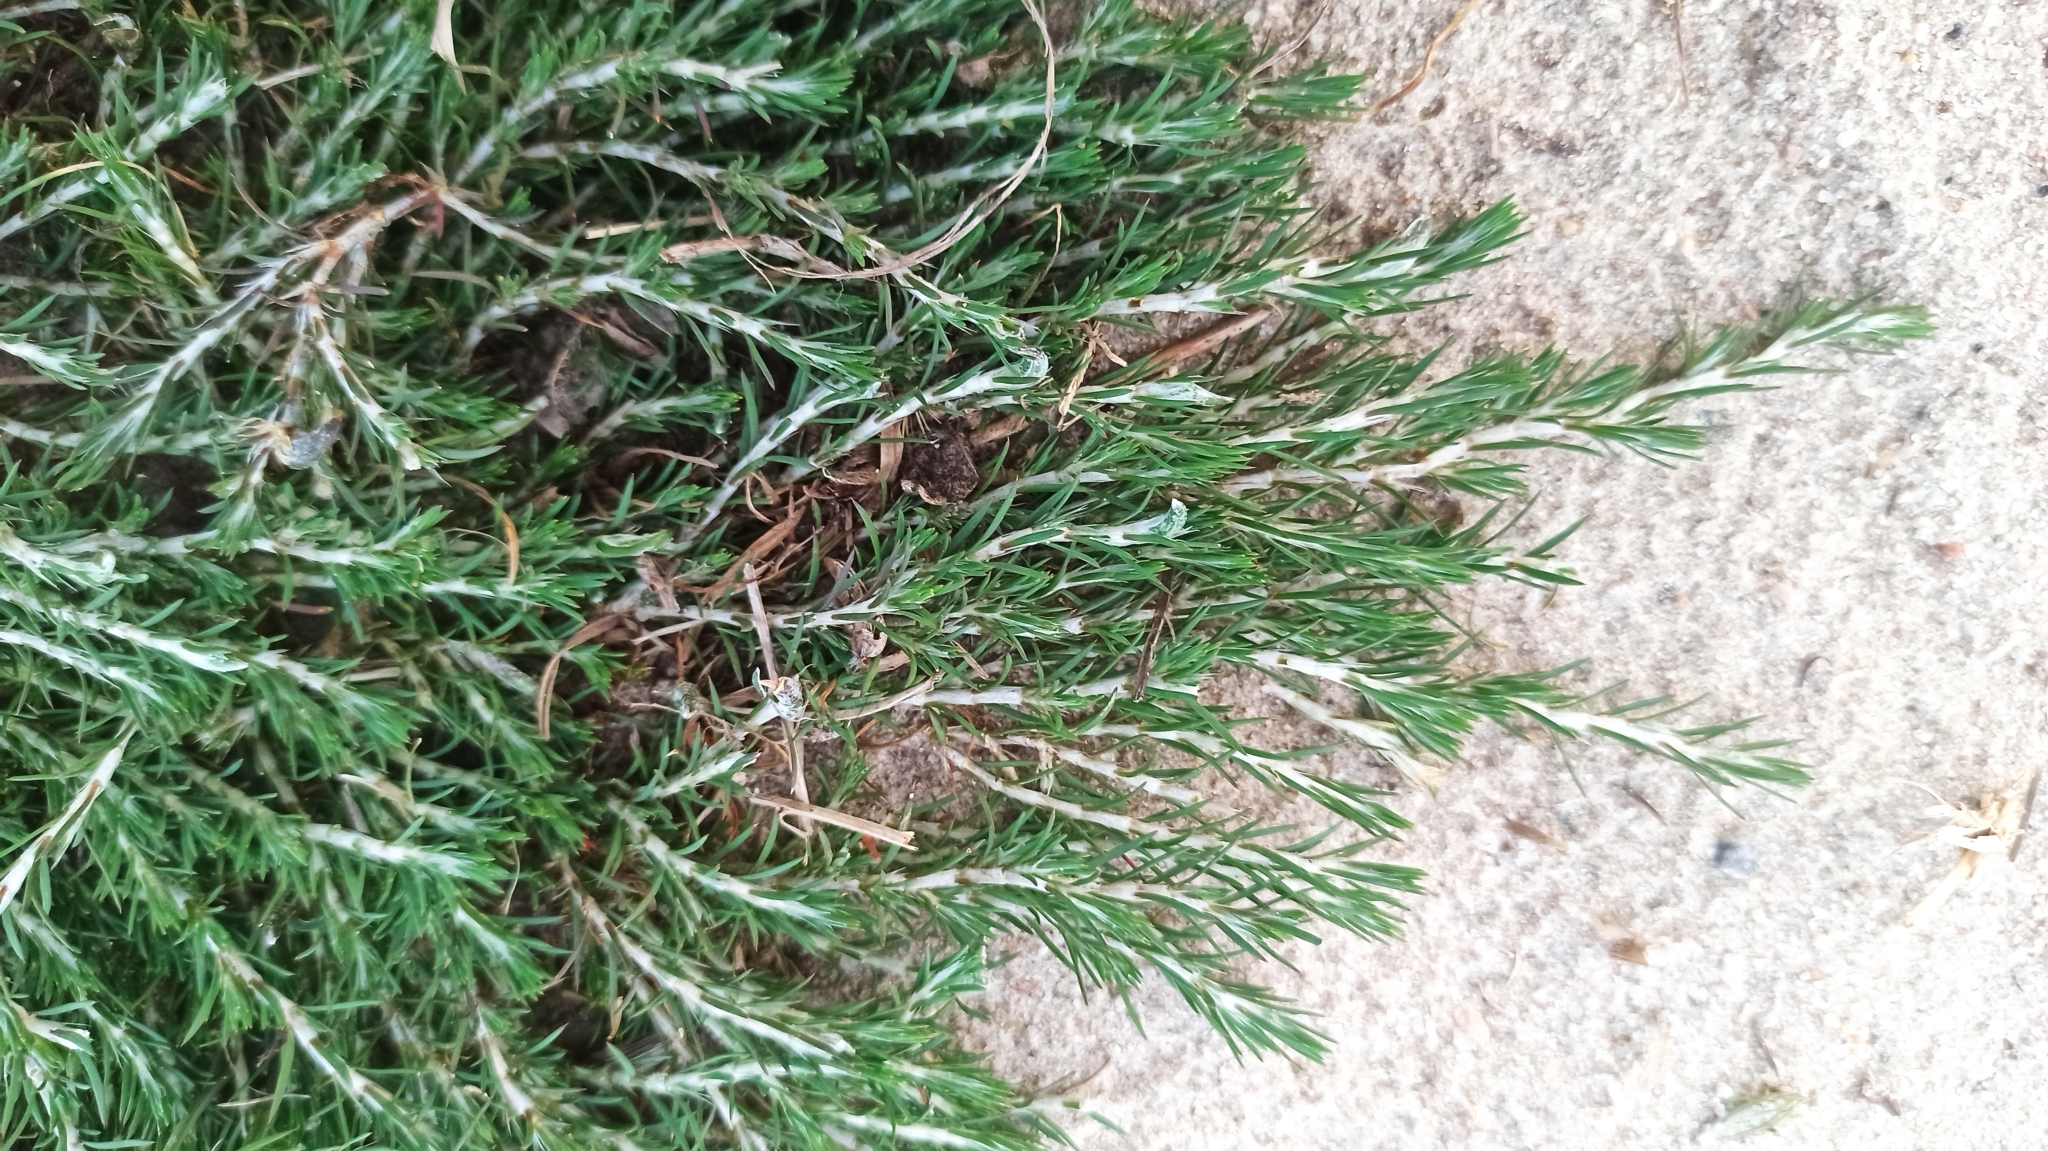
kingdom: Plantae
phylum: Tracheophyta
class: Magnoliopsida
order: Caryophyllales
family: Caryophyllaceae
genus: Cardionema
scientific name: Cardionema ramosissima
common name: Sandcarpet
